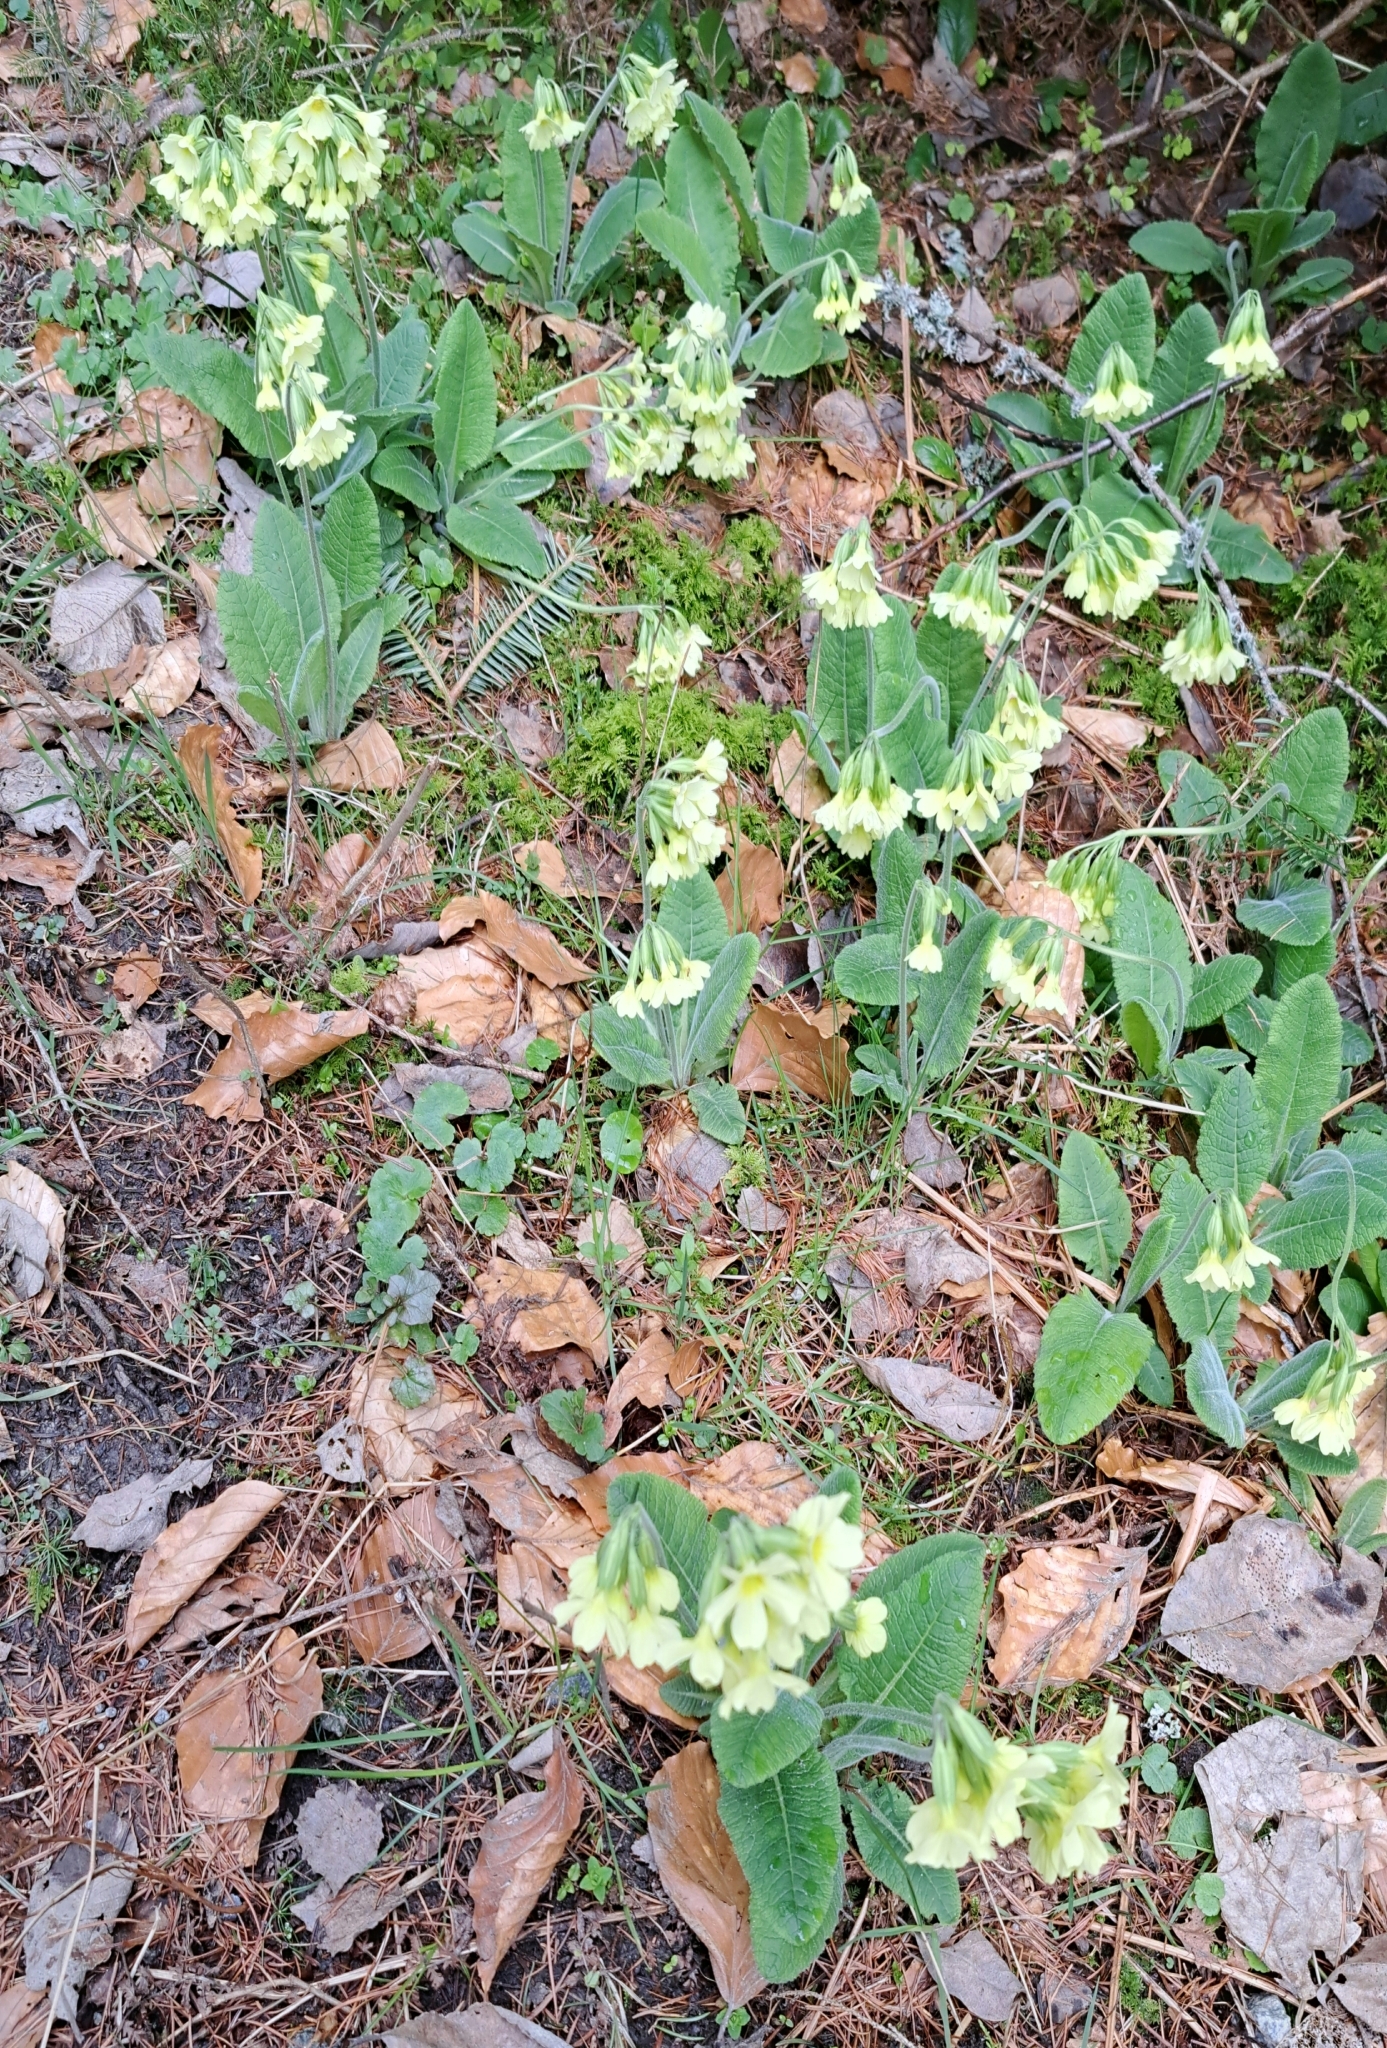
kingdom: Plantae
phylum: Tracheophyta
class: Magnoliopsida
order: Ericales
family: Primulaceae
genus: Primula
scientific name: Primula elatior
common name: Oxlip
